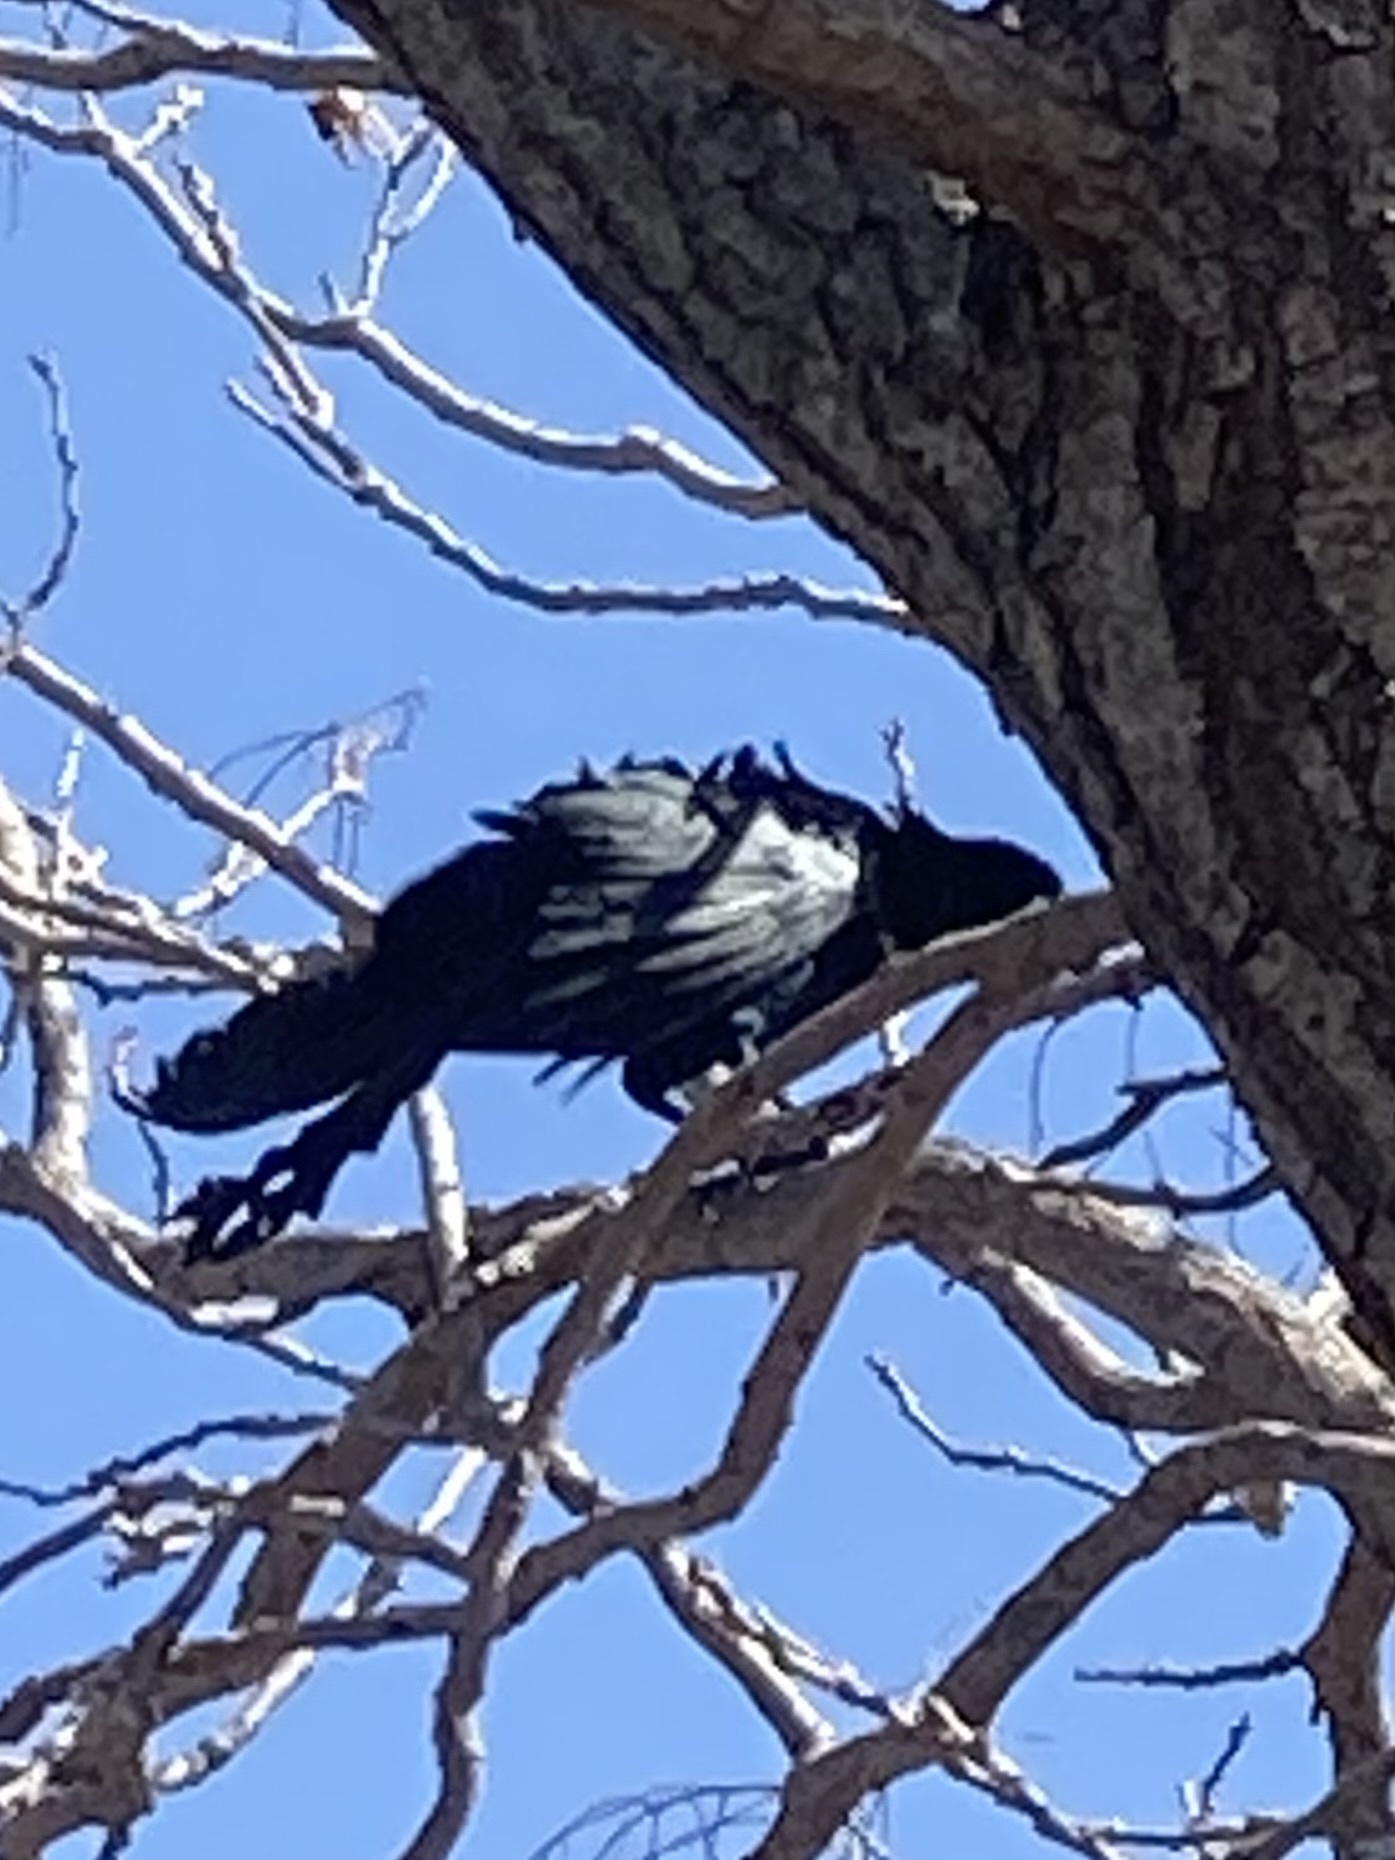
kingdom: Animalia
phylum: Chordata
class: Aves
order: Passeriformes
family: Icteridae
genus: Quiscalus
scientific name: Quiscalus mexicanus
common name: Great-tailed grackle
